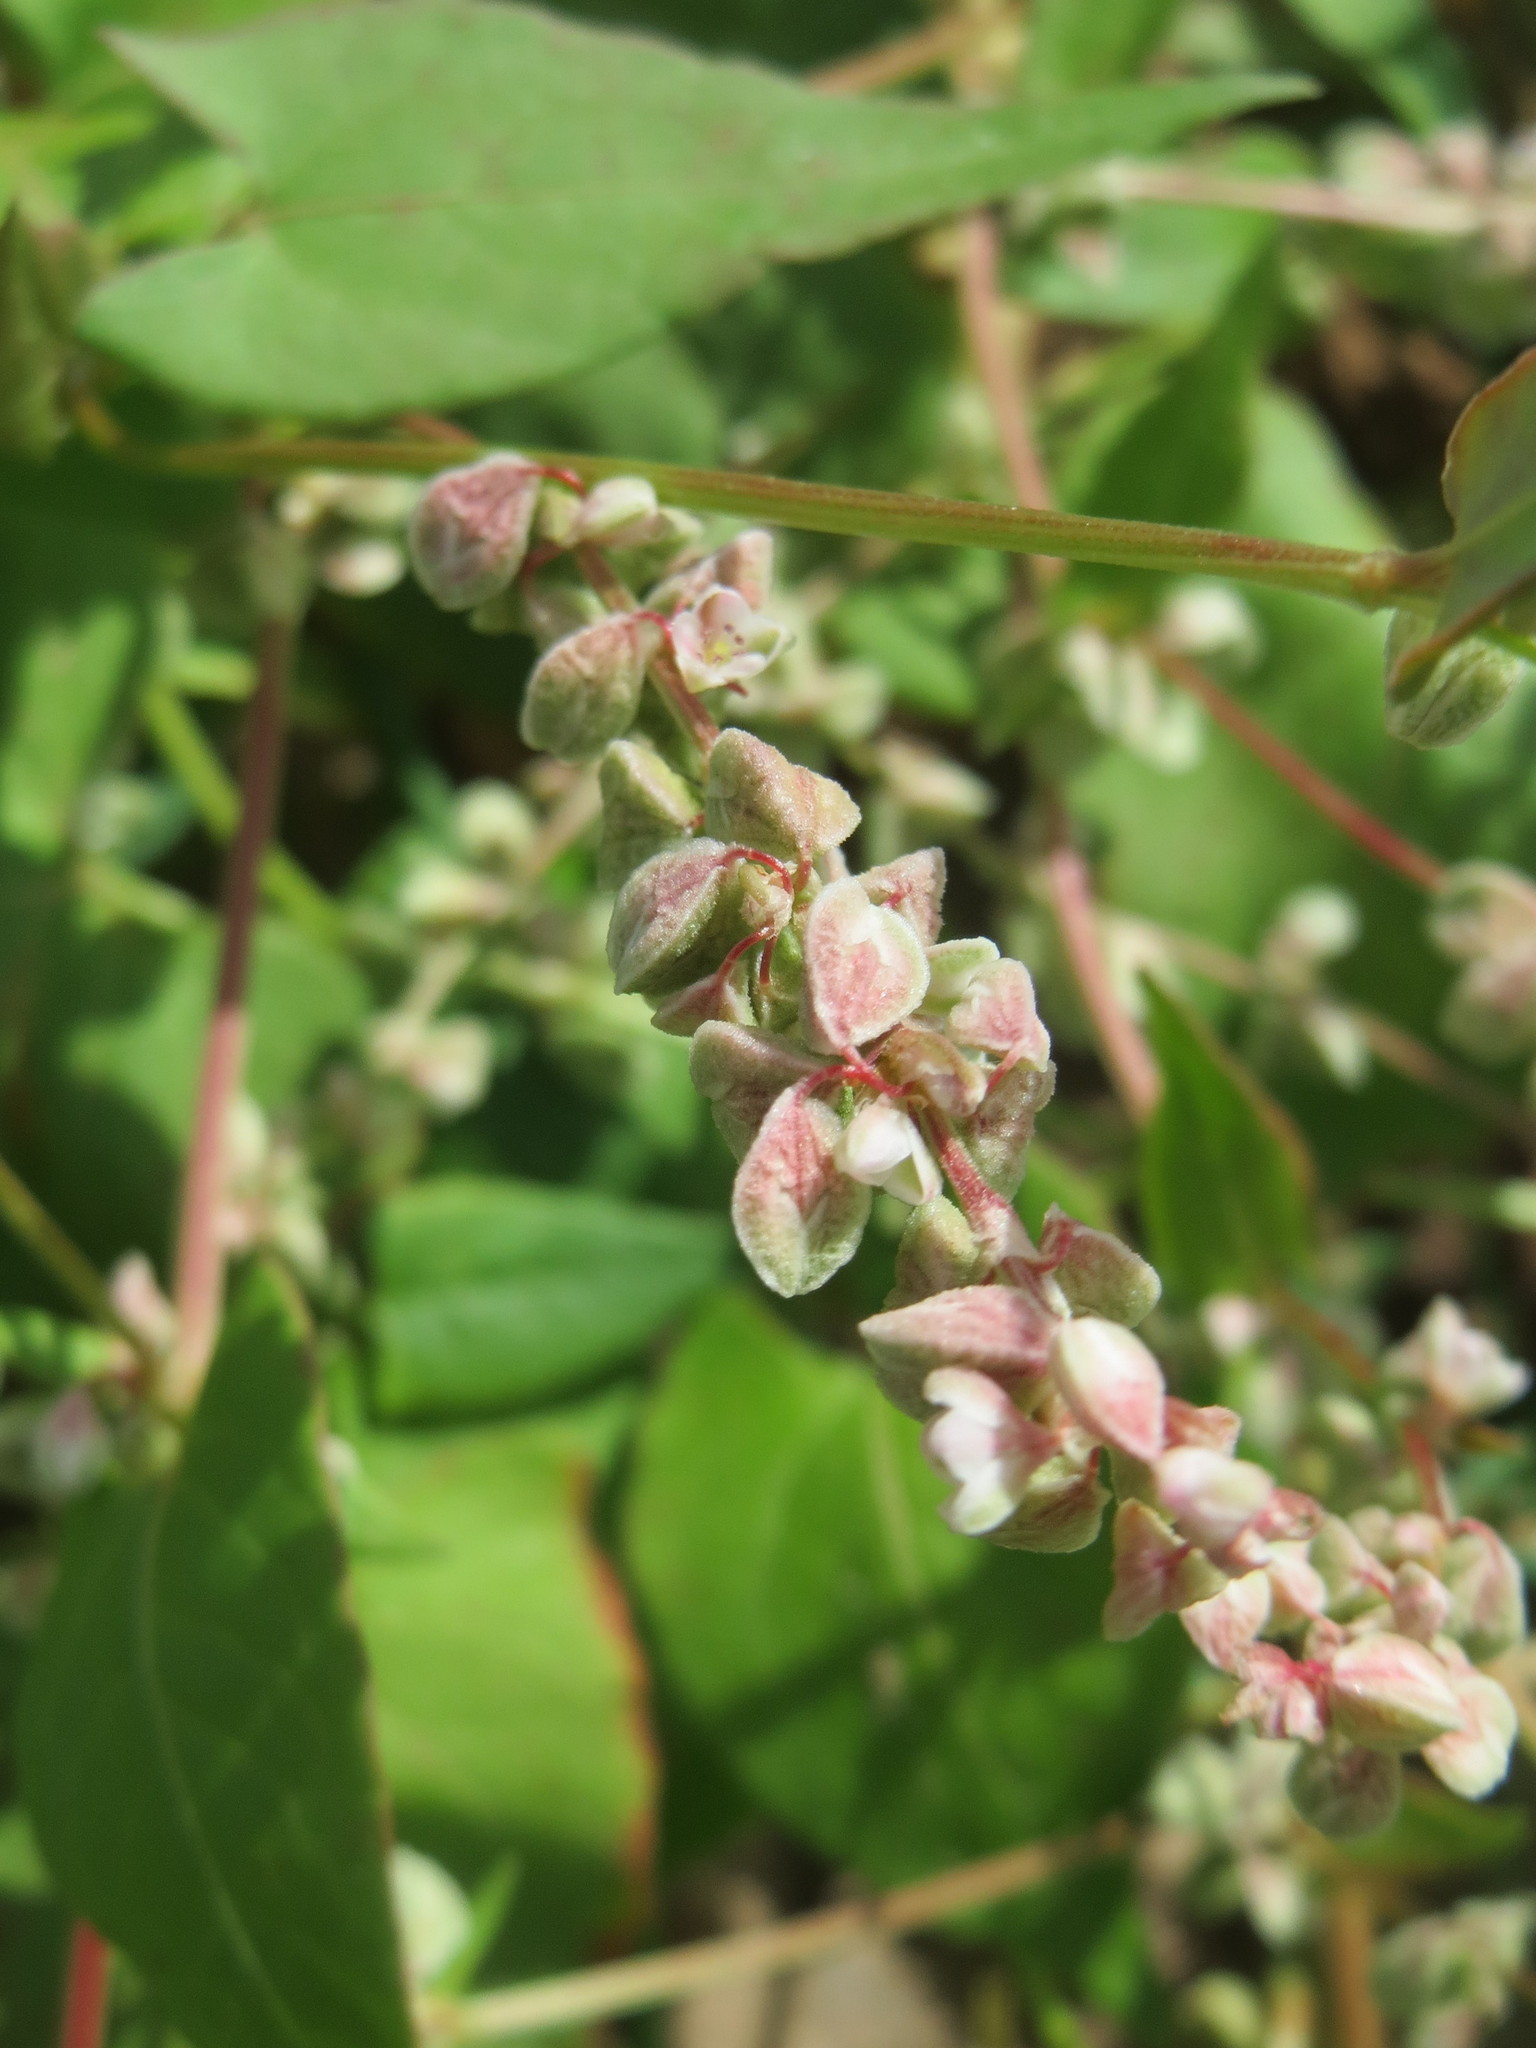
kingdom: Plantae
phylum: Tracheophyta
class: Magnoliopsida
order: Caryophyllales
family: Polygonaceae
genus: Fallopia
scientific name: Fallopia convolvulus
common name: Black bindweed
